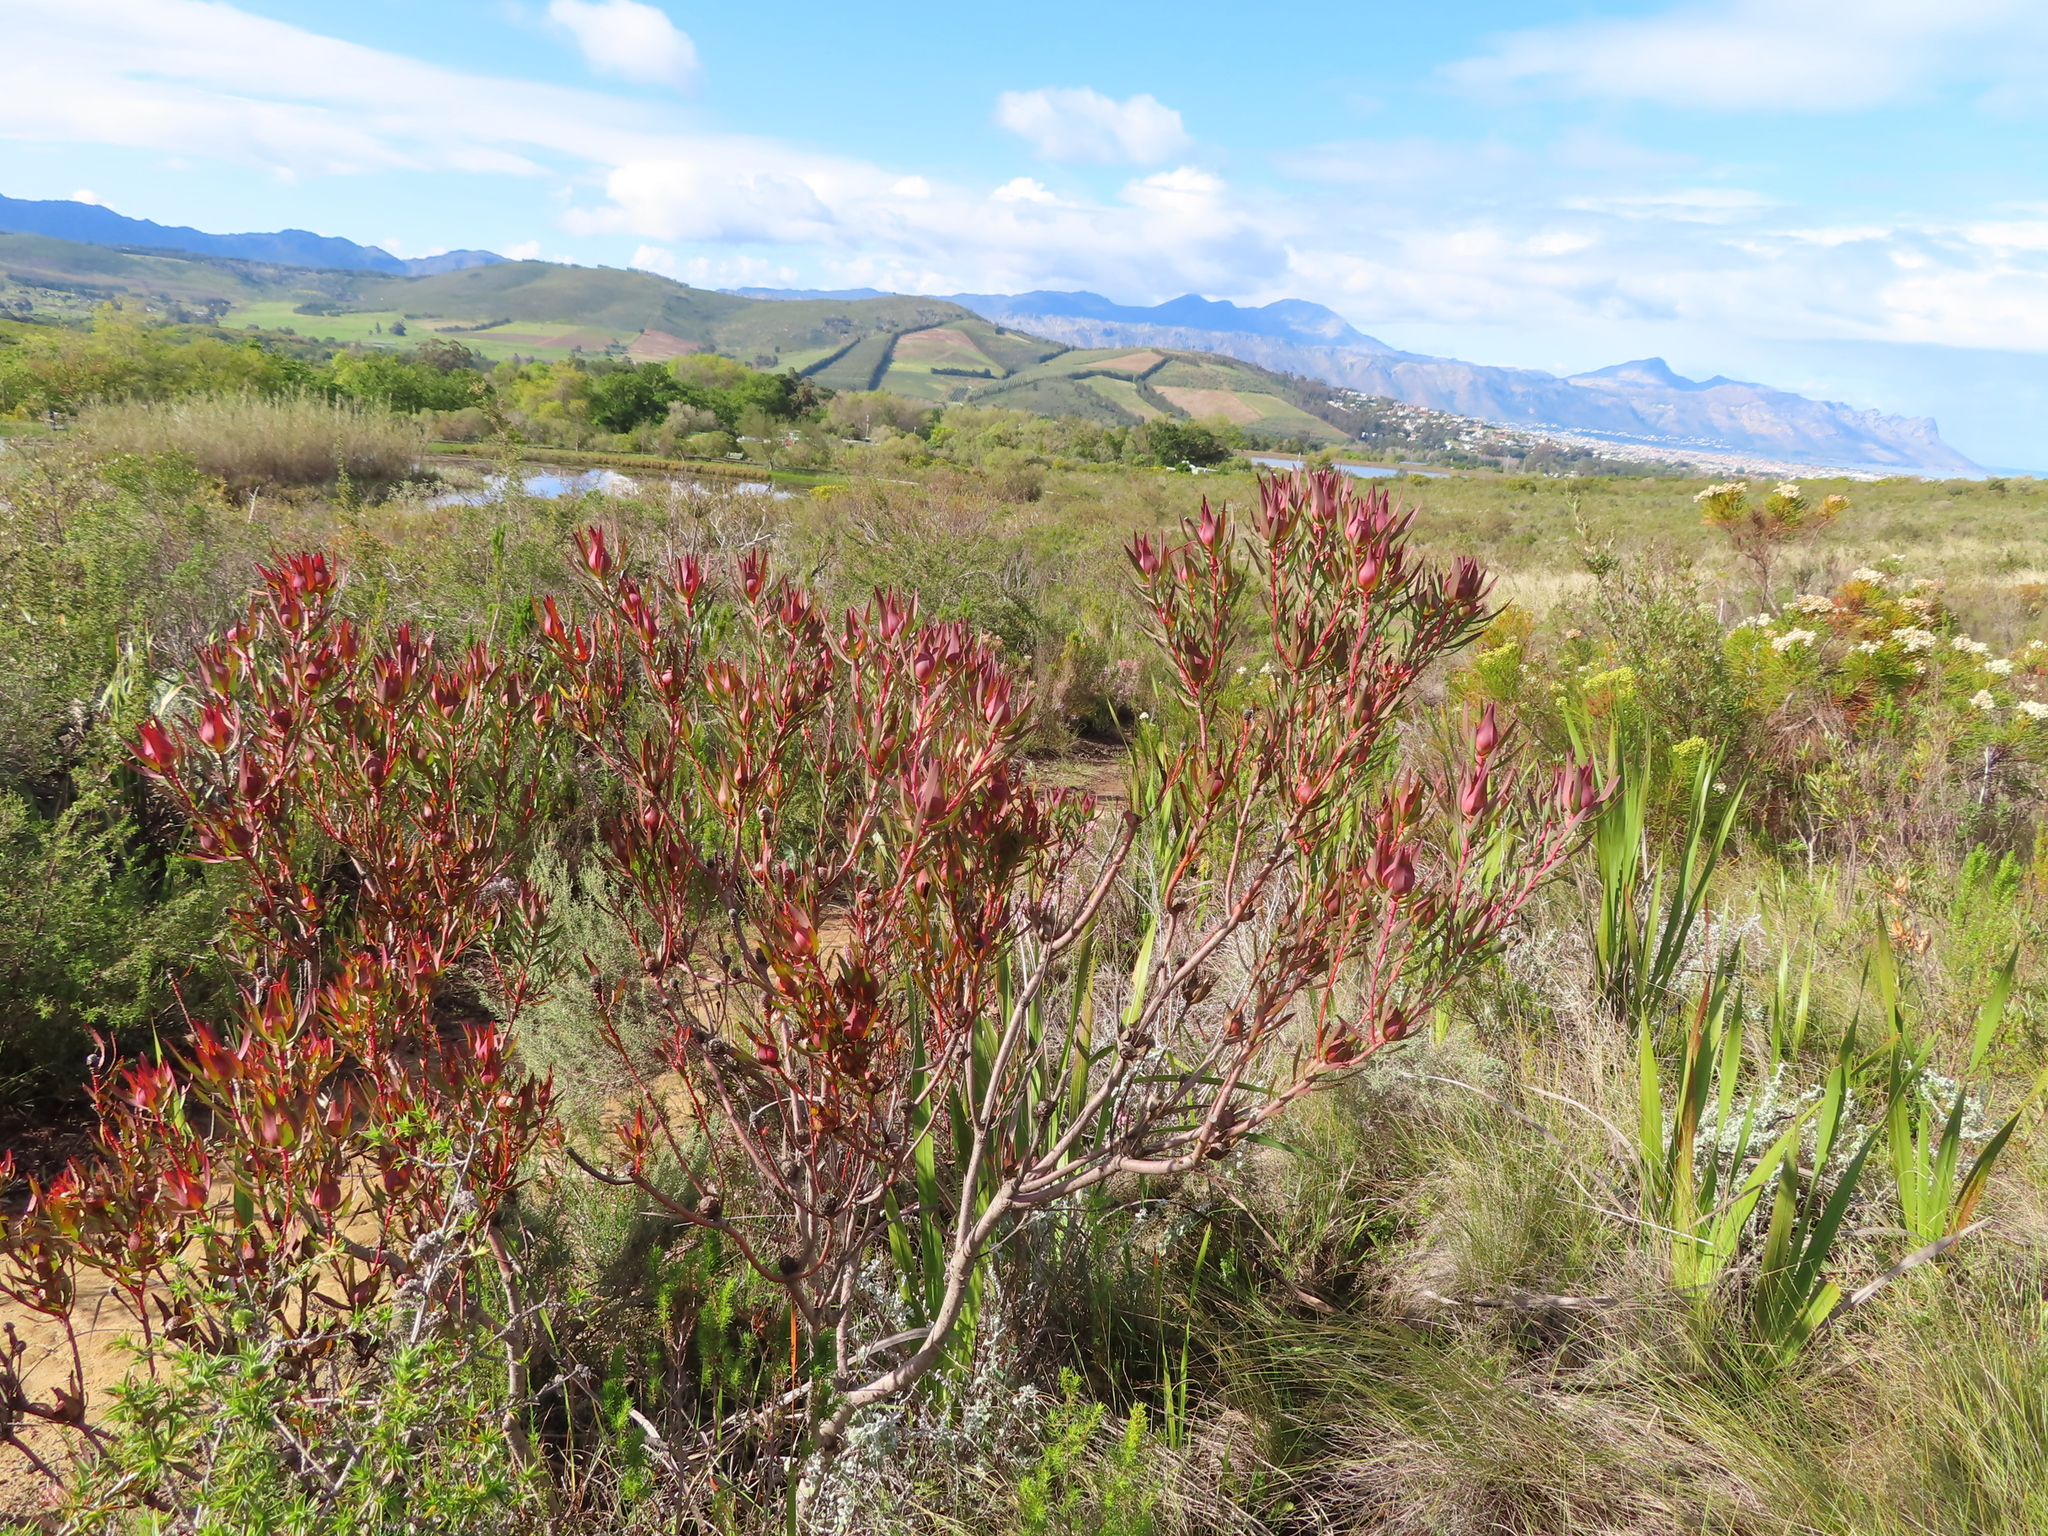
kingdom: Plantae
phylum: Tracheophyta
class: Magnoliopsida
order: Proteales
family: Proteaceae
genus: Leucadendron
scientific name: Leucadendron salignum
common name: Common sunshine conebush
